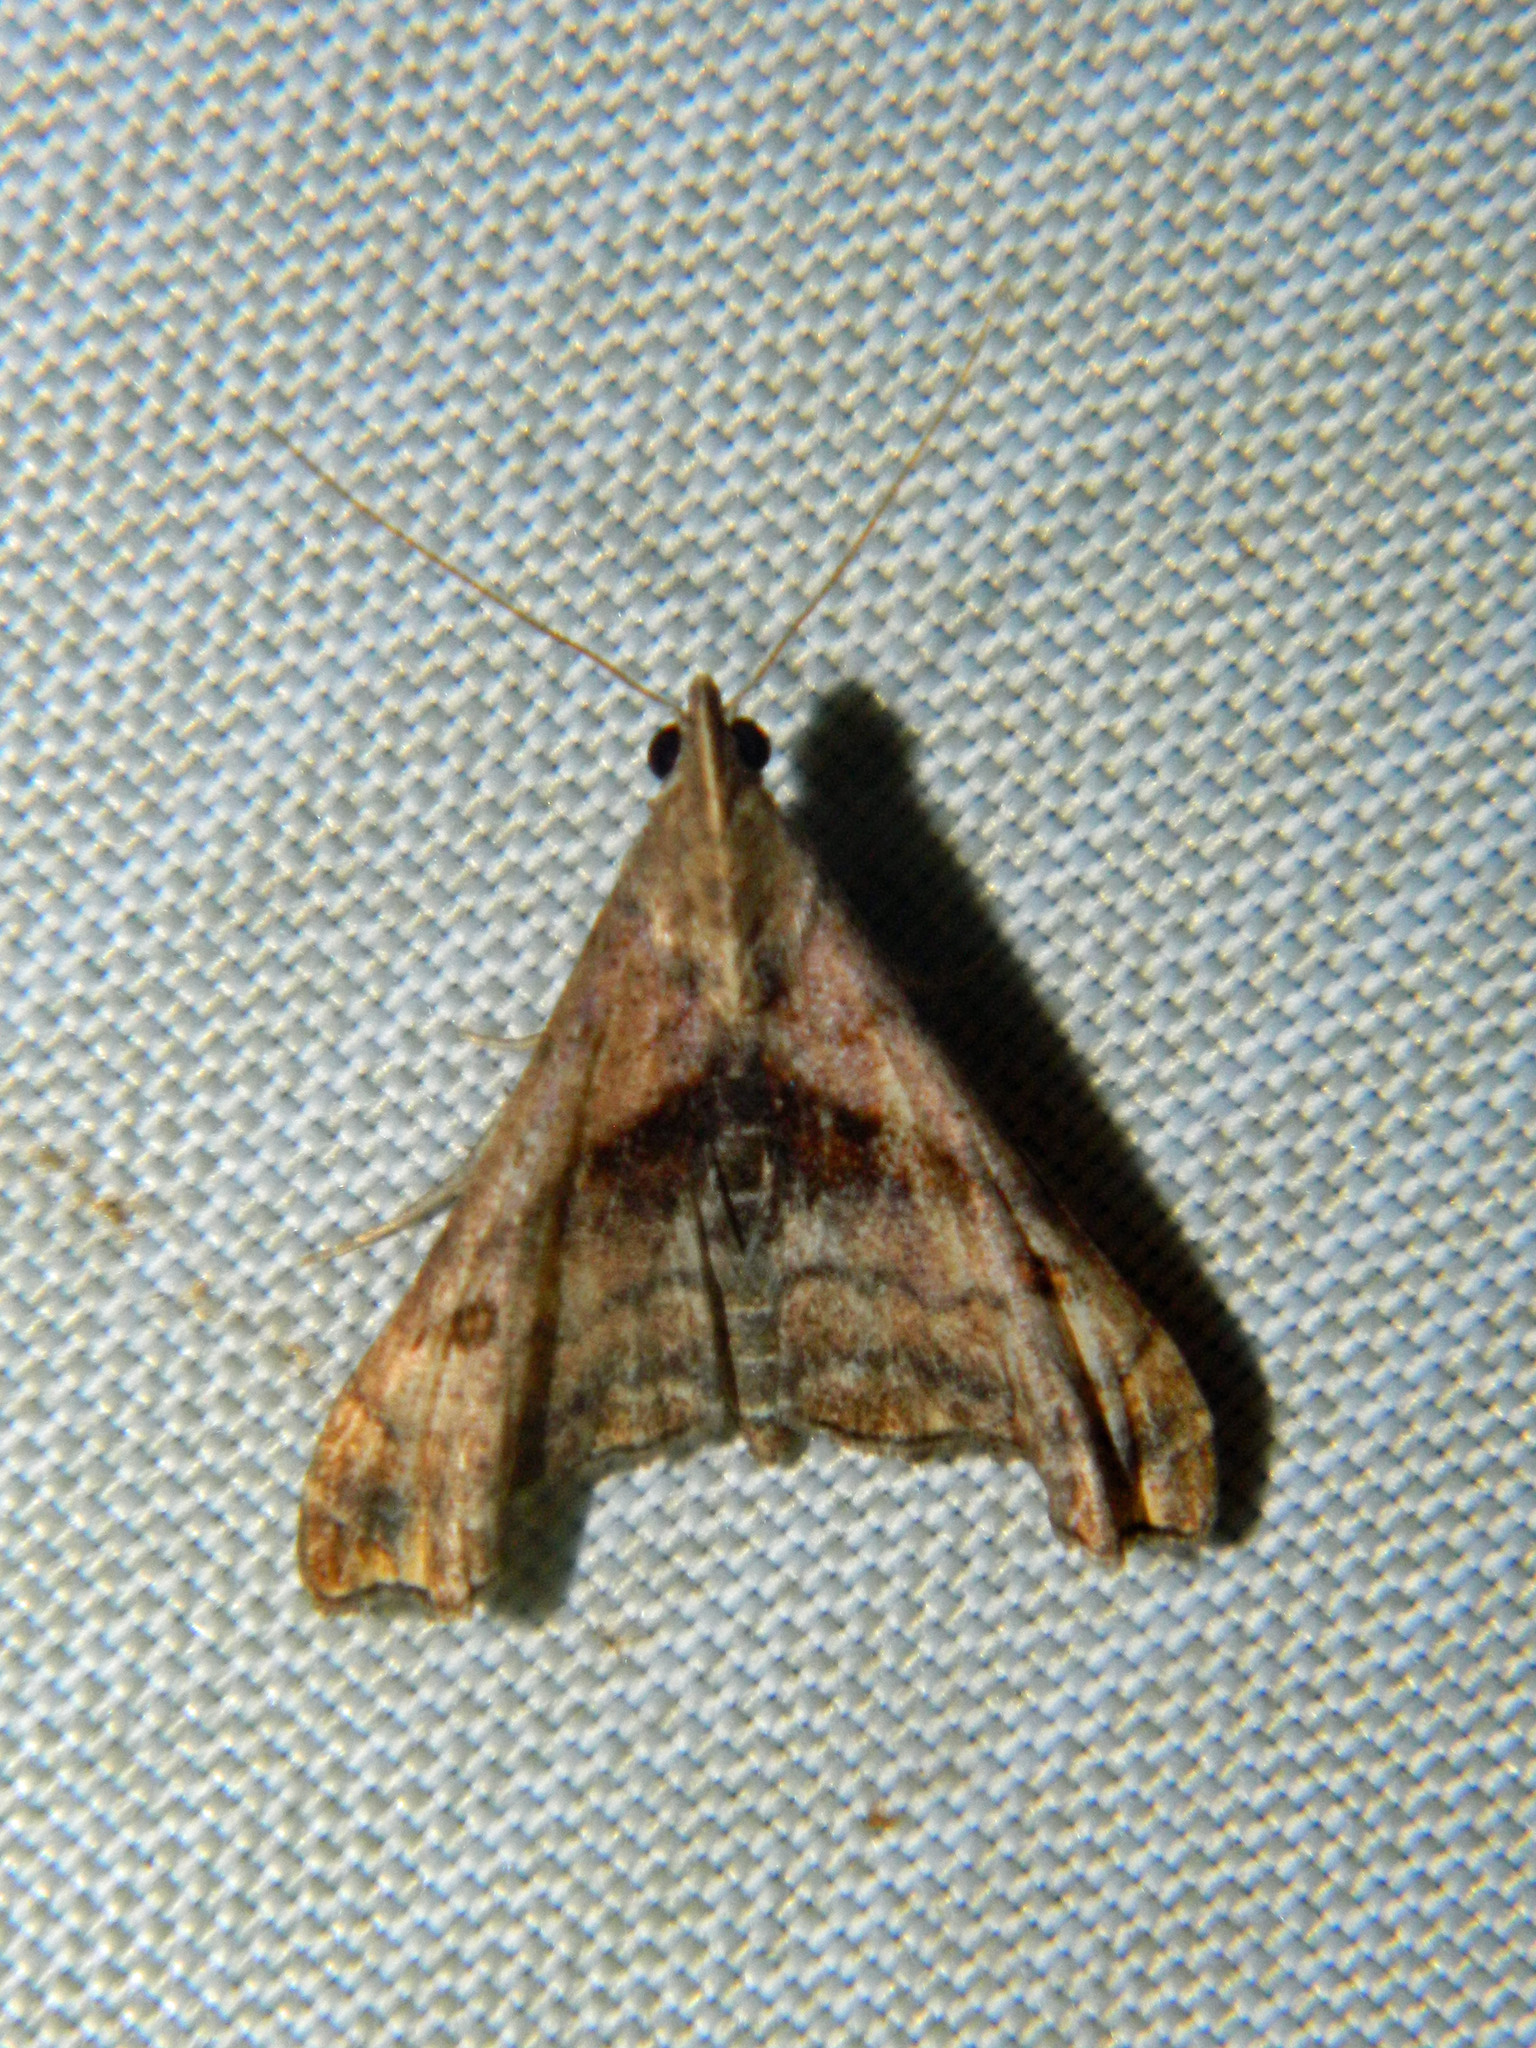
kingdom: Animalia
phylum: Arthropoda
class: Insecta
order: Lepidoptera
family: Erebidae
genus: Palthis
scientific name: Palthis angulalis
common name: Dark-spotted palthis moth
